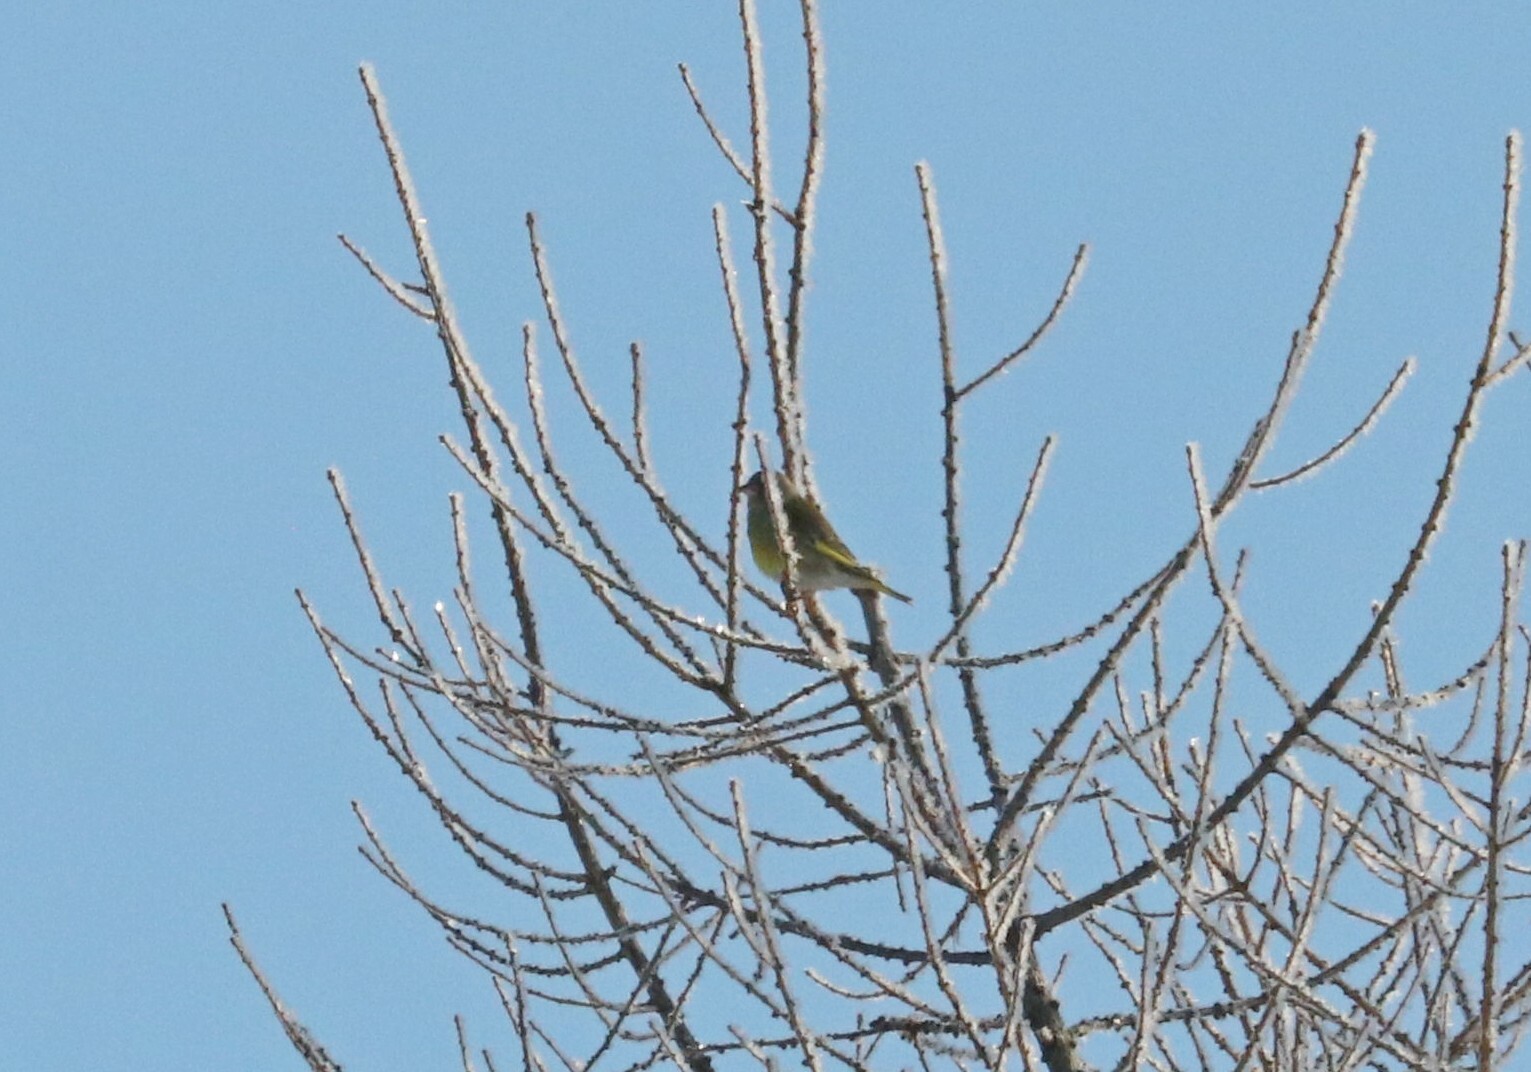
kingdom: Plantae
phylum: Tracheophyta
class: Liliopsida
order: Poales
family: Poaceae
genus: Chloris
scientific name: Chloris chloris
